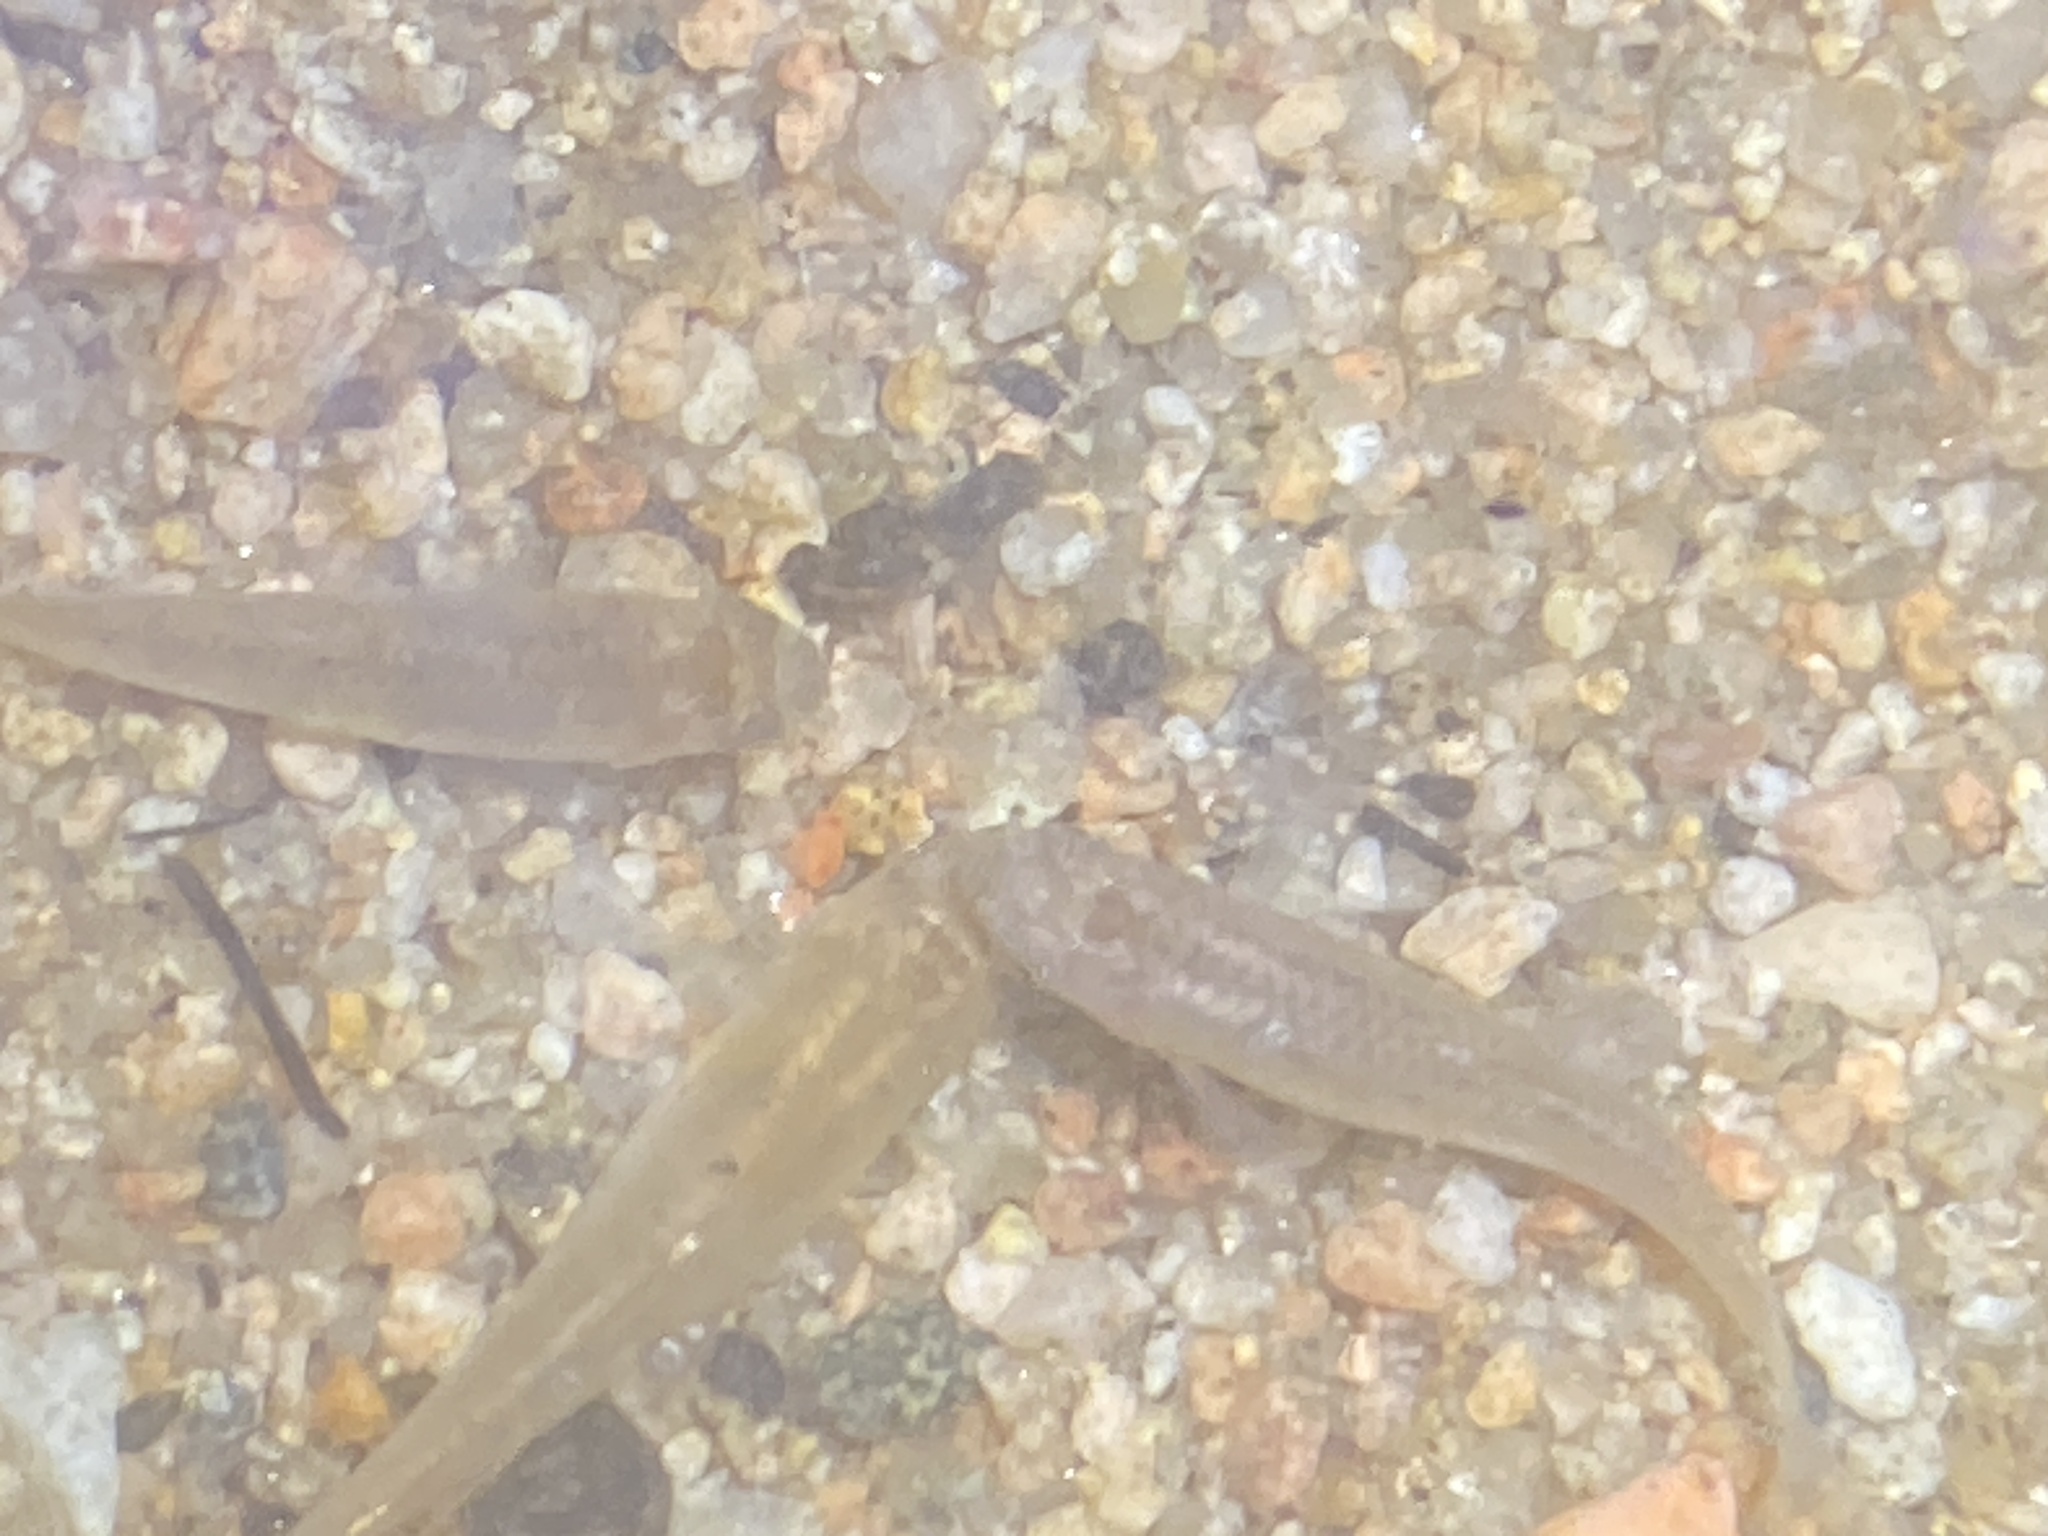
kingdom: Animalia
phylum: Chordata
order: Cyprinodontiformes
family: Anablepidae
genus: Jenynsia
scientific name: Jenynsia lineata
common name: Onesided livebearer
